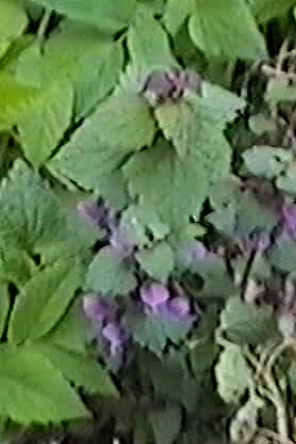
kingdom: Plantae
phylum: Tracheophyta
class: Magnoliopsida
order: Lamiales
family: Lamiaceae
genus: Lamium
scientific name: Lamium maculatum
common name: Spotted dead-nettle
